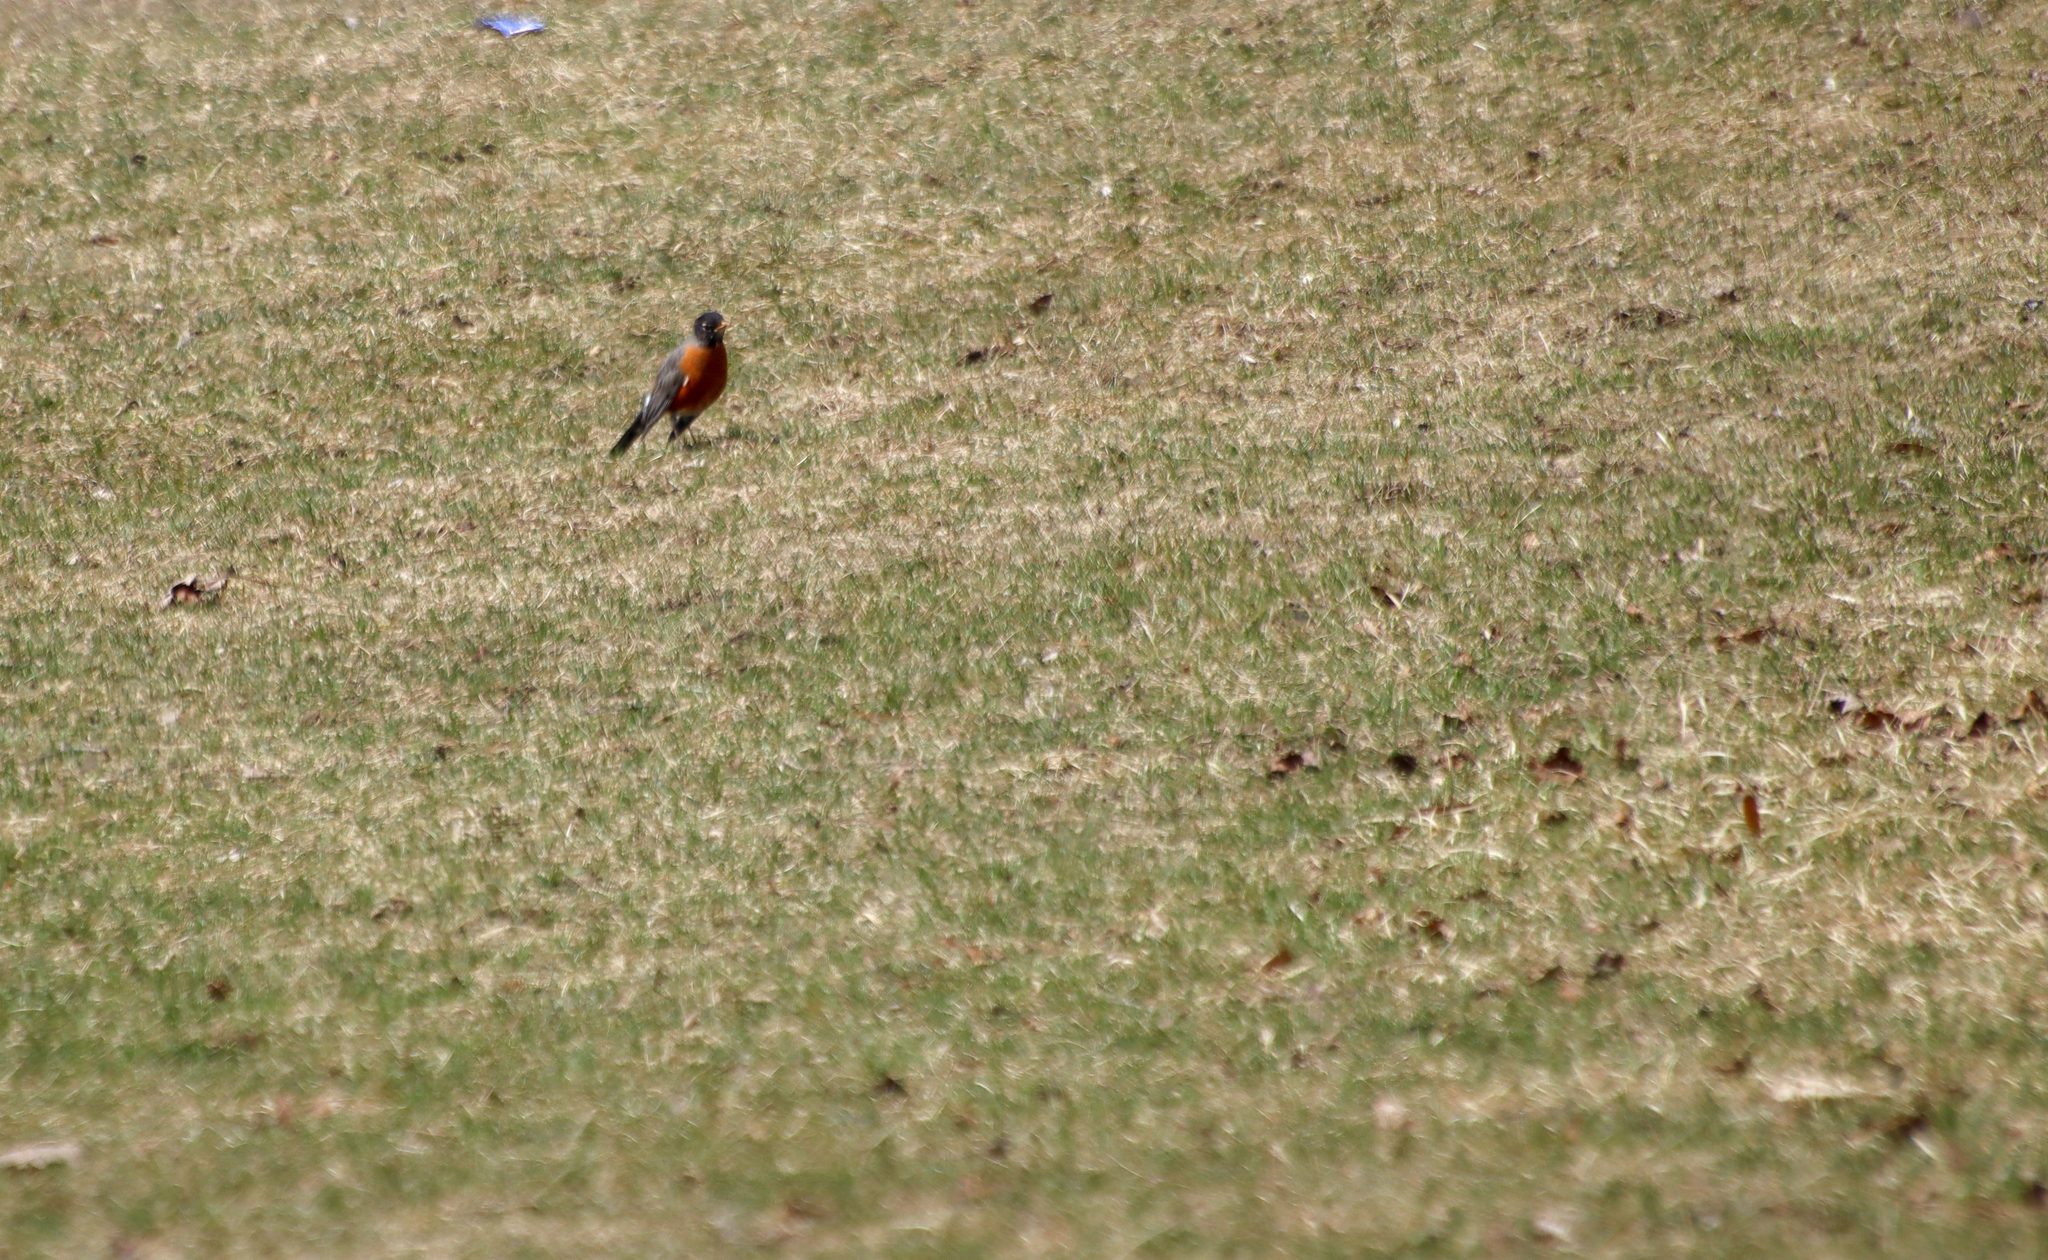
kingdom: Animalia
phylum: Chordata
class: Aves
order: Passeriformes
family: Turdidae
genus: Turdus
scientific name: Turdus migratorius
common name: American robin
